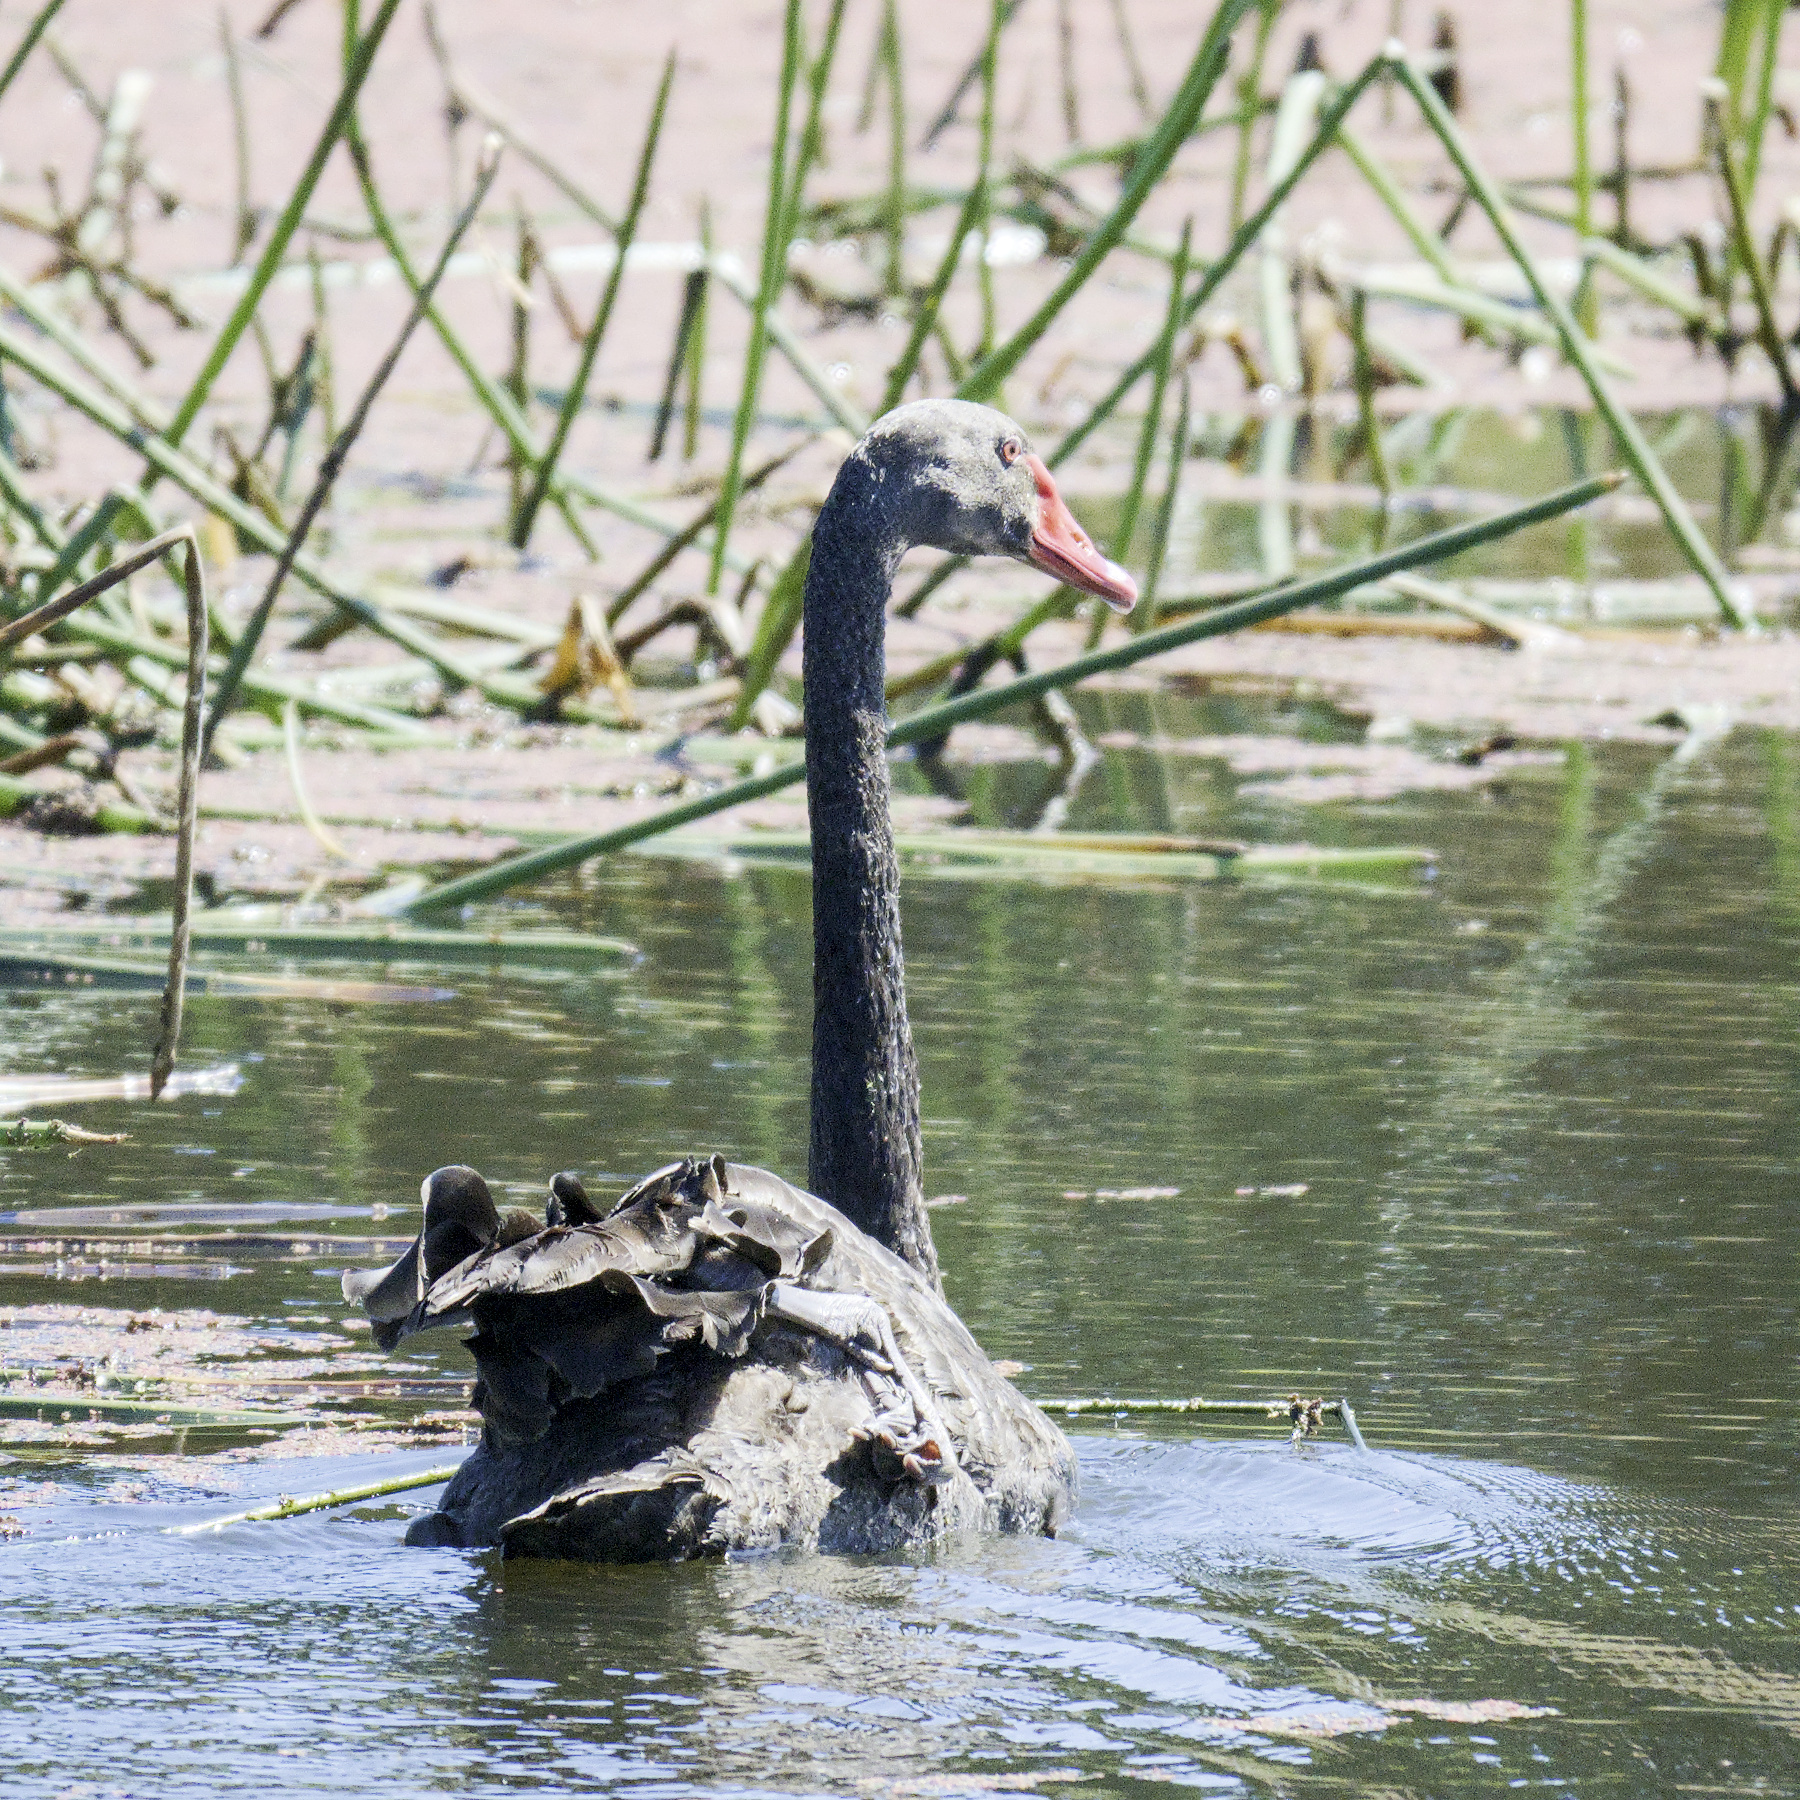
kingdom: Animalia
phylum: Chordata
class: Aves
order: Anseriformes
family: Anatidae
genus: Cygnus
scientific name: Cygnus atratus
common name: Black swan
